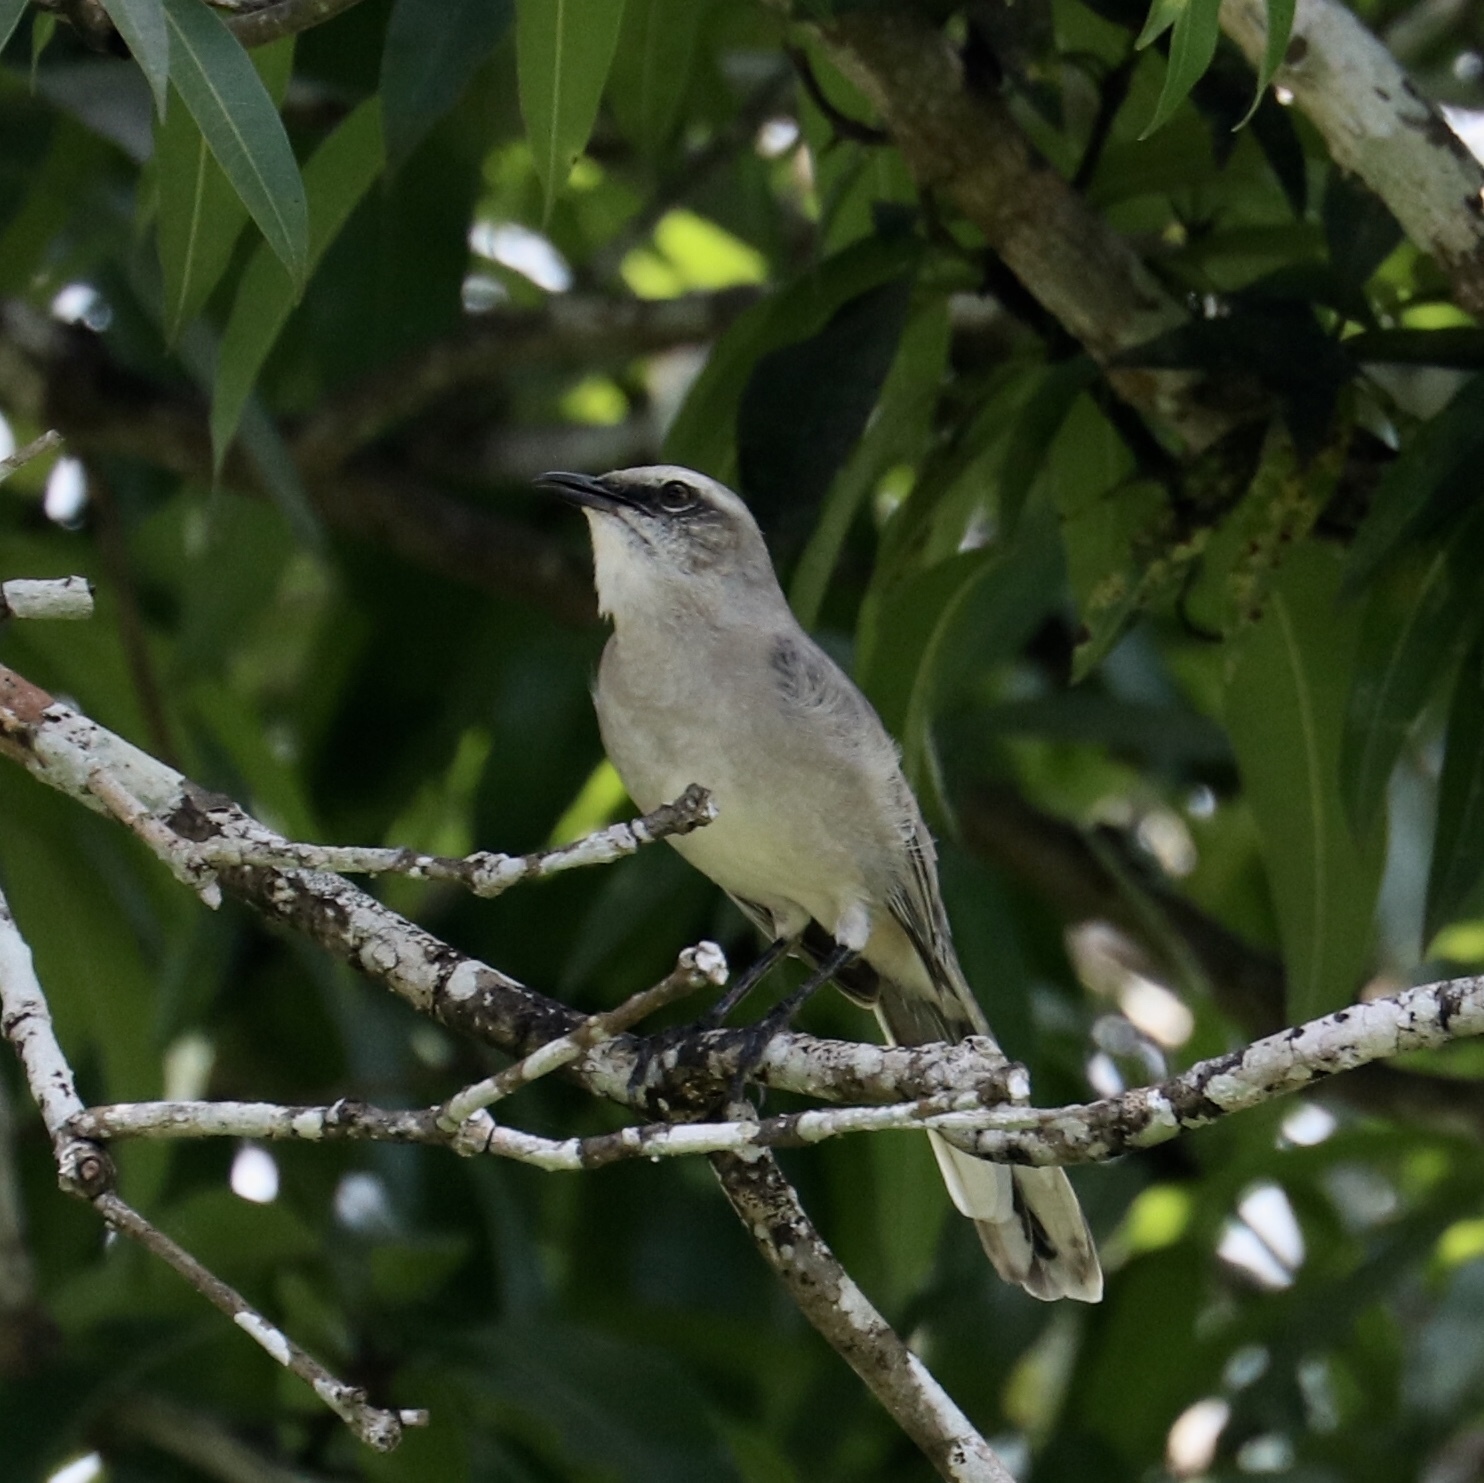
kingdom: Animalia
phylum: Chordata
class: Aves
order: Passeriformes
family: Mimidae
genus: Mimus
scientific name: Mimus gilvus
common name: Tropical mockingbird
